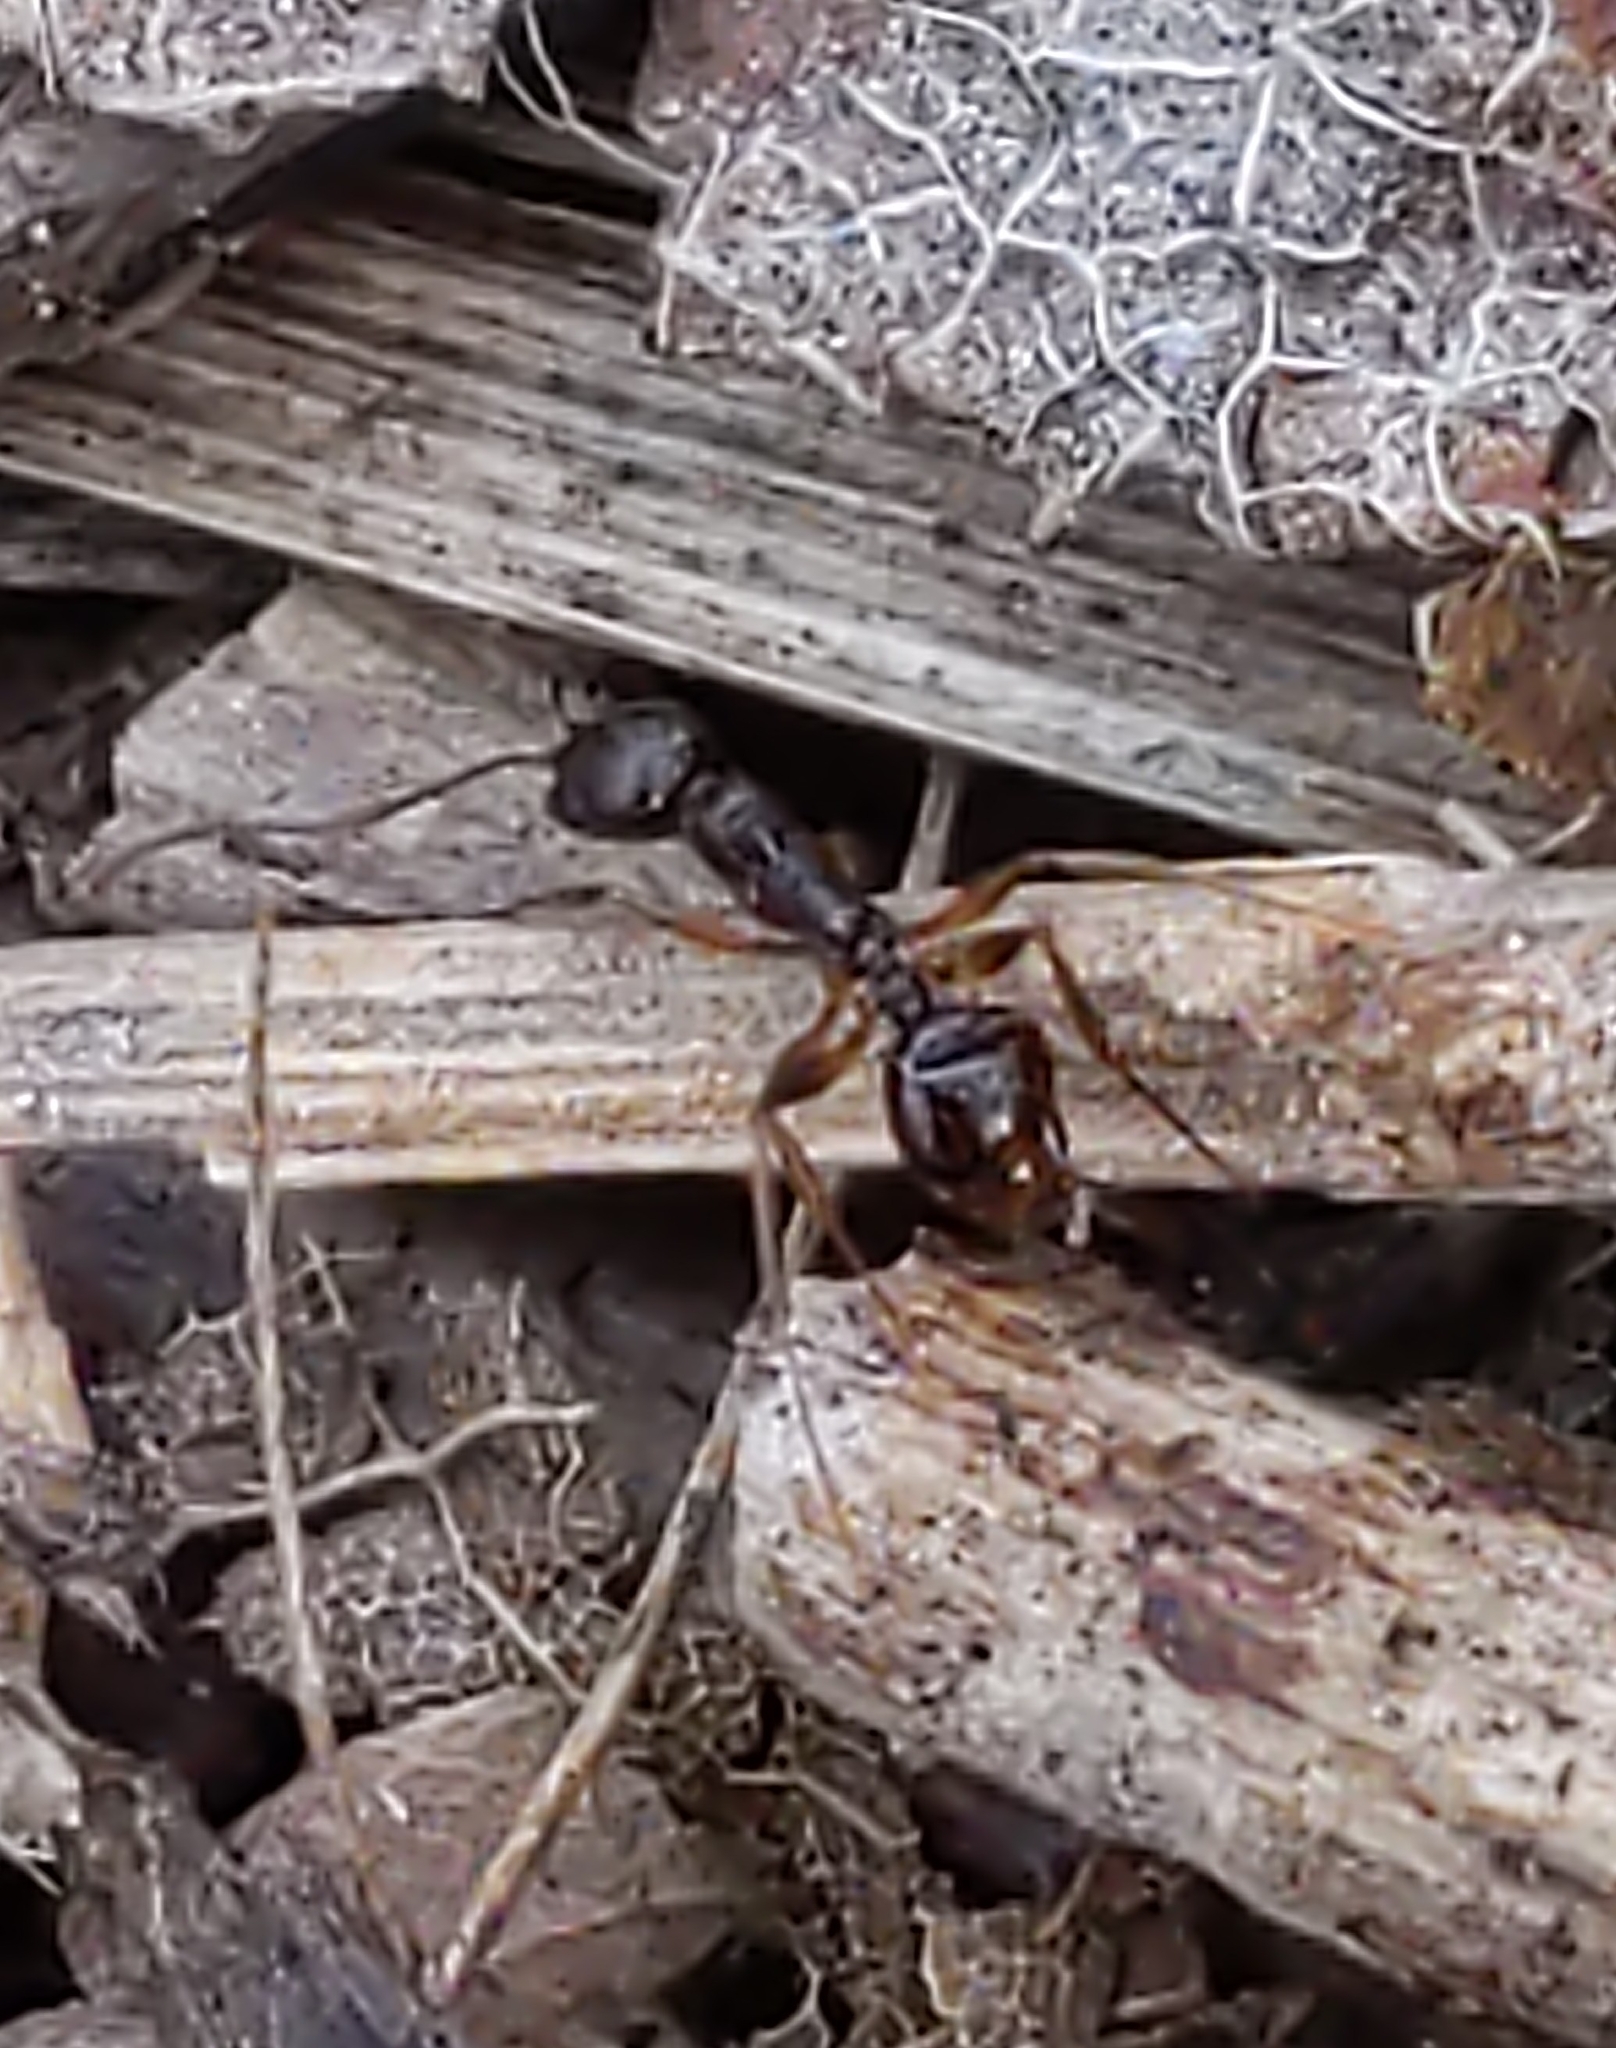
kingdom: Animalia
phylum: Arthropoda
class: Insecta
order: Hymenoptera
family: Formicidae
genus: Aphaenogaster
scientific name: Aphaenogaster
